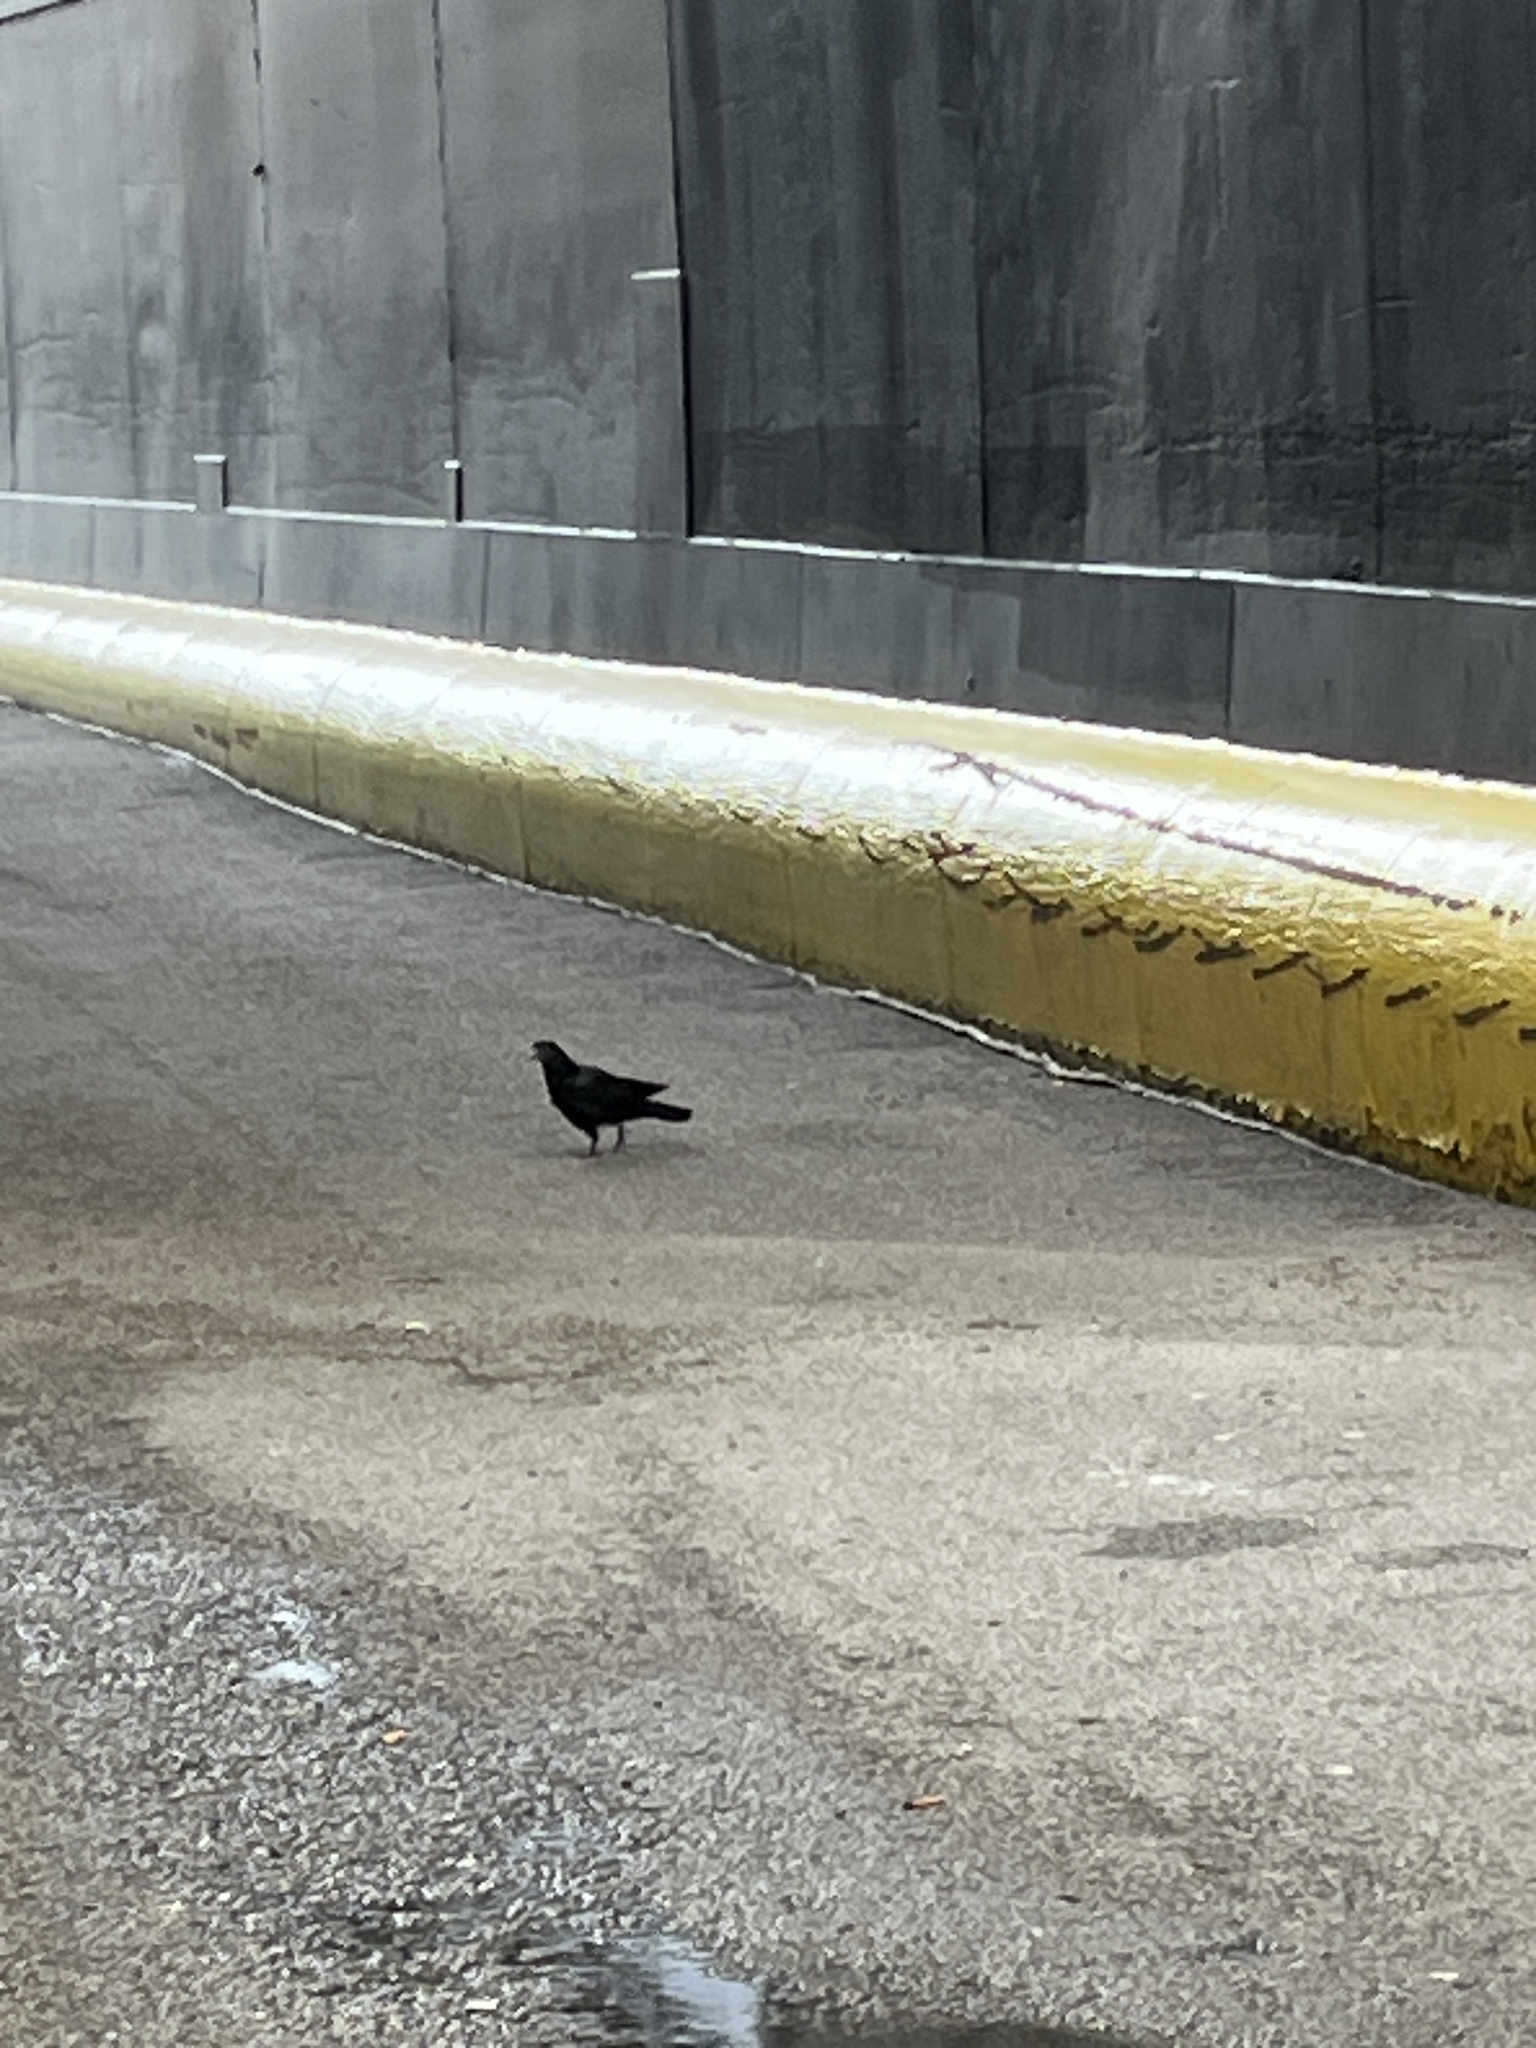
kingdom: Animalia
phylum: Chordata
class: Aves
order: Columbiformes
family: Columbidae
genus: Columba
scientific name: Columba livia
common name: Rock pigeon
